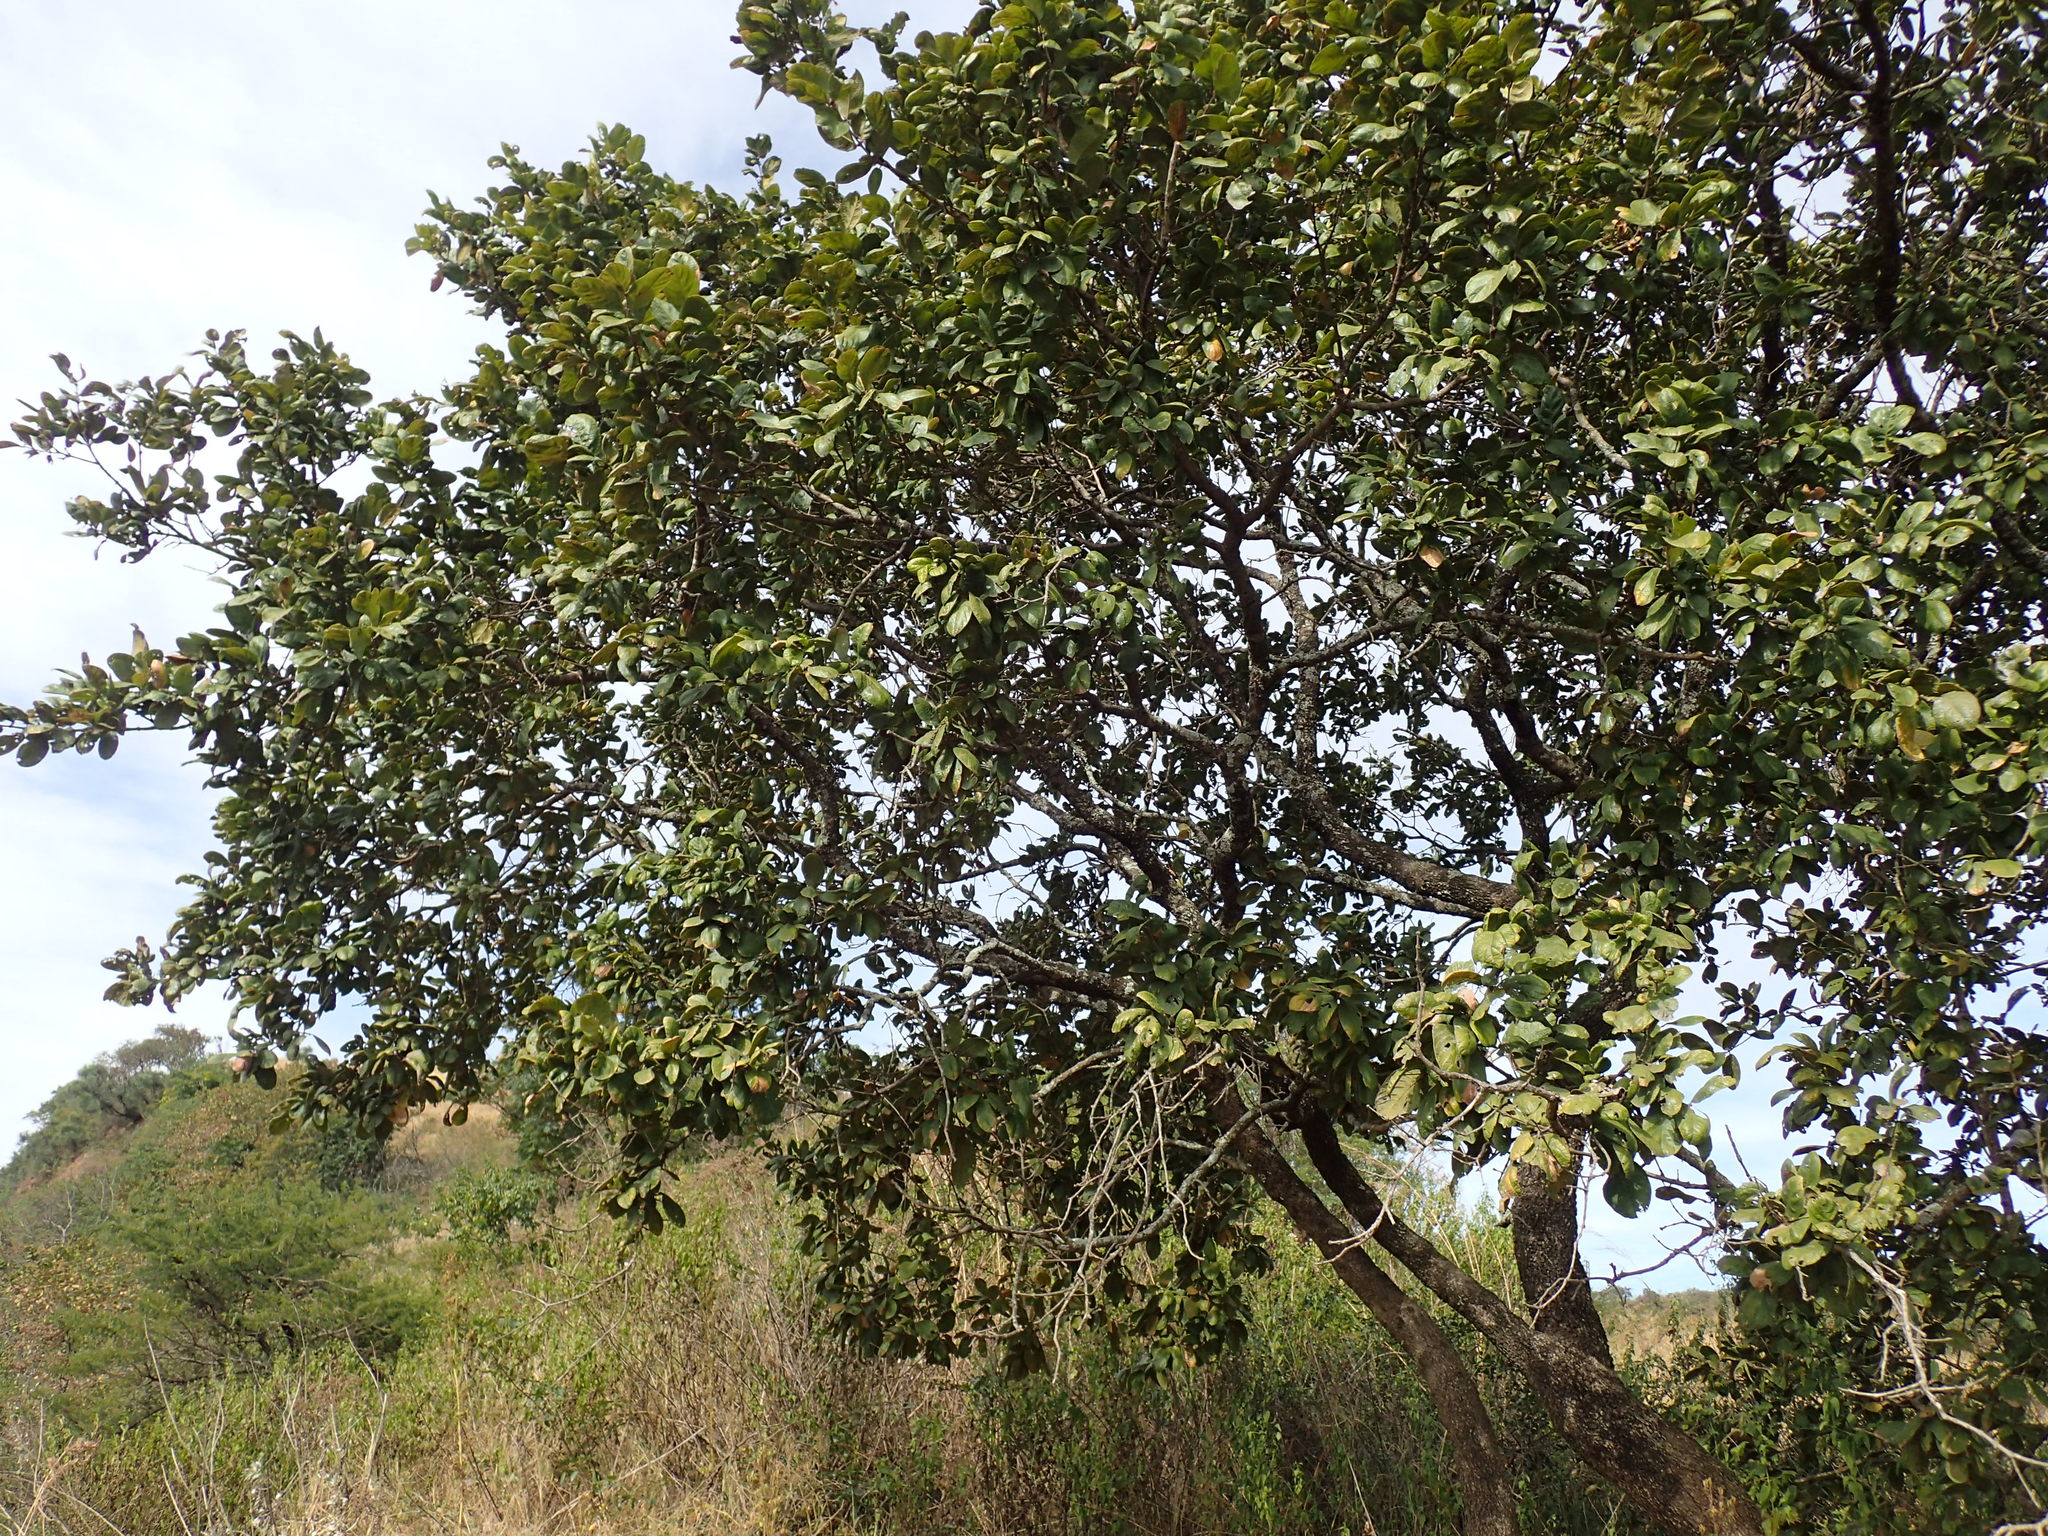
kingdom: Plantae
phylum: Tracheophyta
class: Magnoliopsida
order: Myrtales
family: Combretaceae
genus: Combretum
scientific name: Combretum molle
